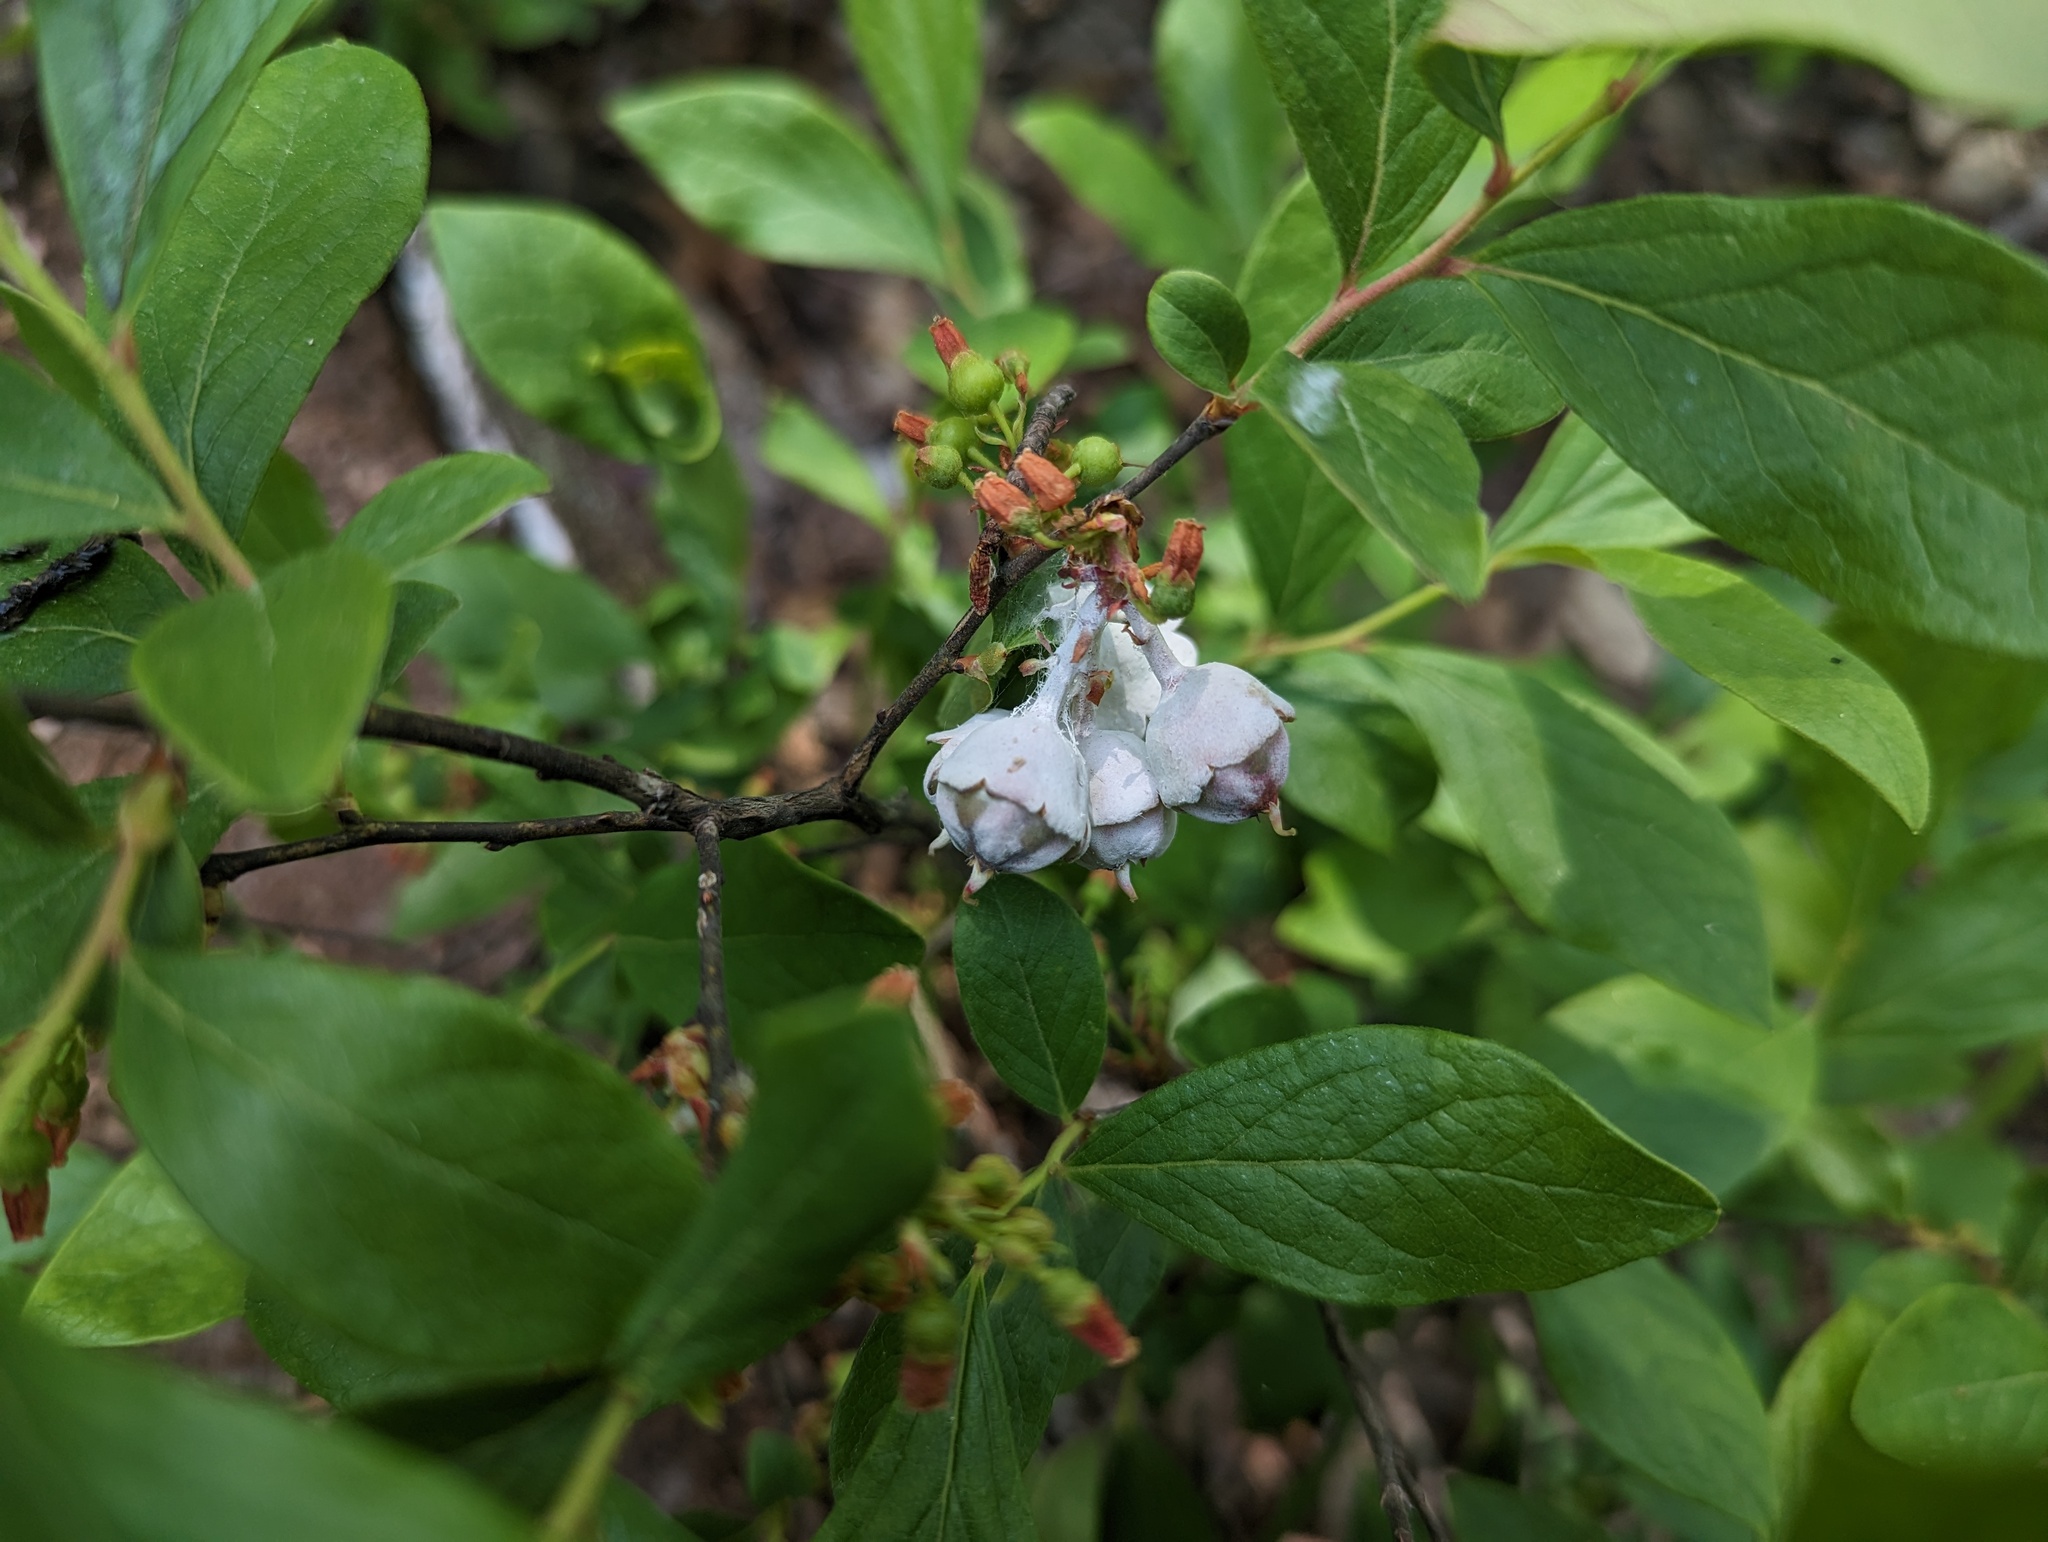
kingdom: Plantae
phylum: Tracheophyta
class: Magnoliopsida
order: Ericales
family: Ericaceae
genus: Gaylussacia
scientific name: Gaylussacia baccata
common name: Black huckleberry
